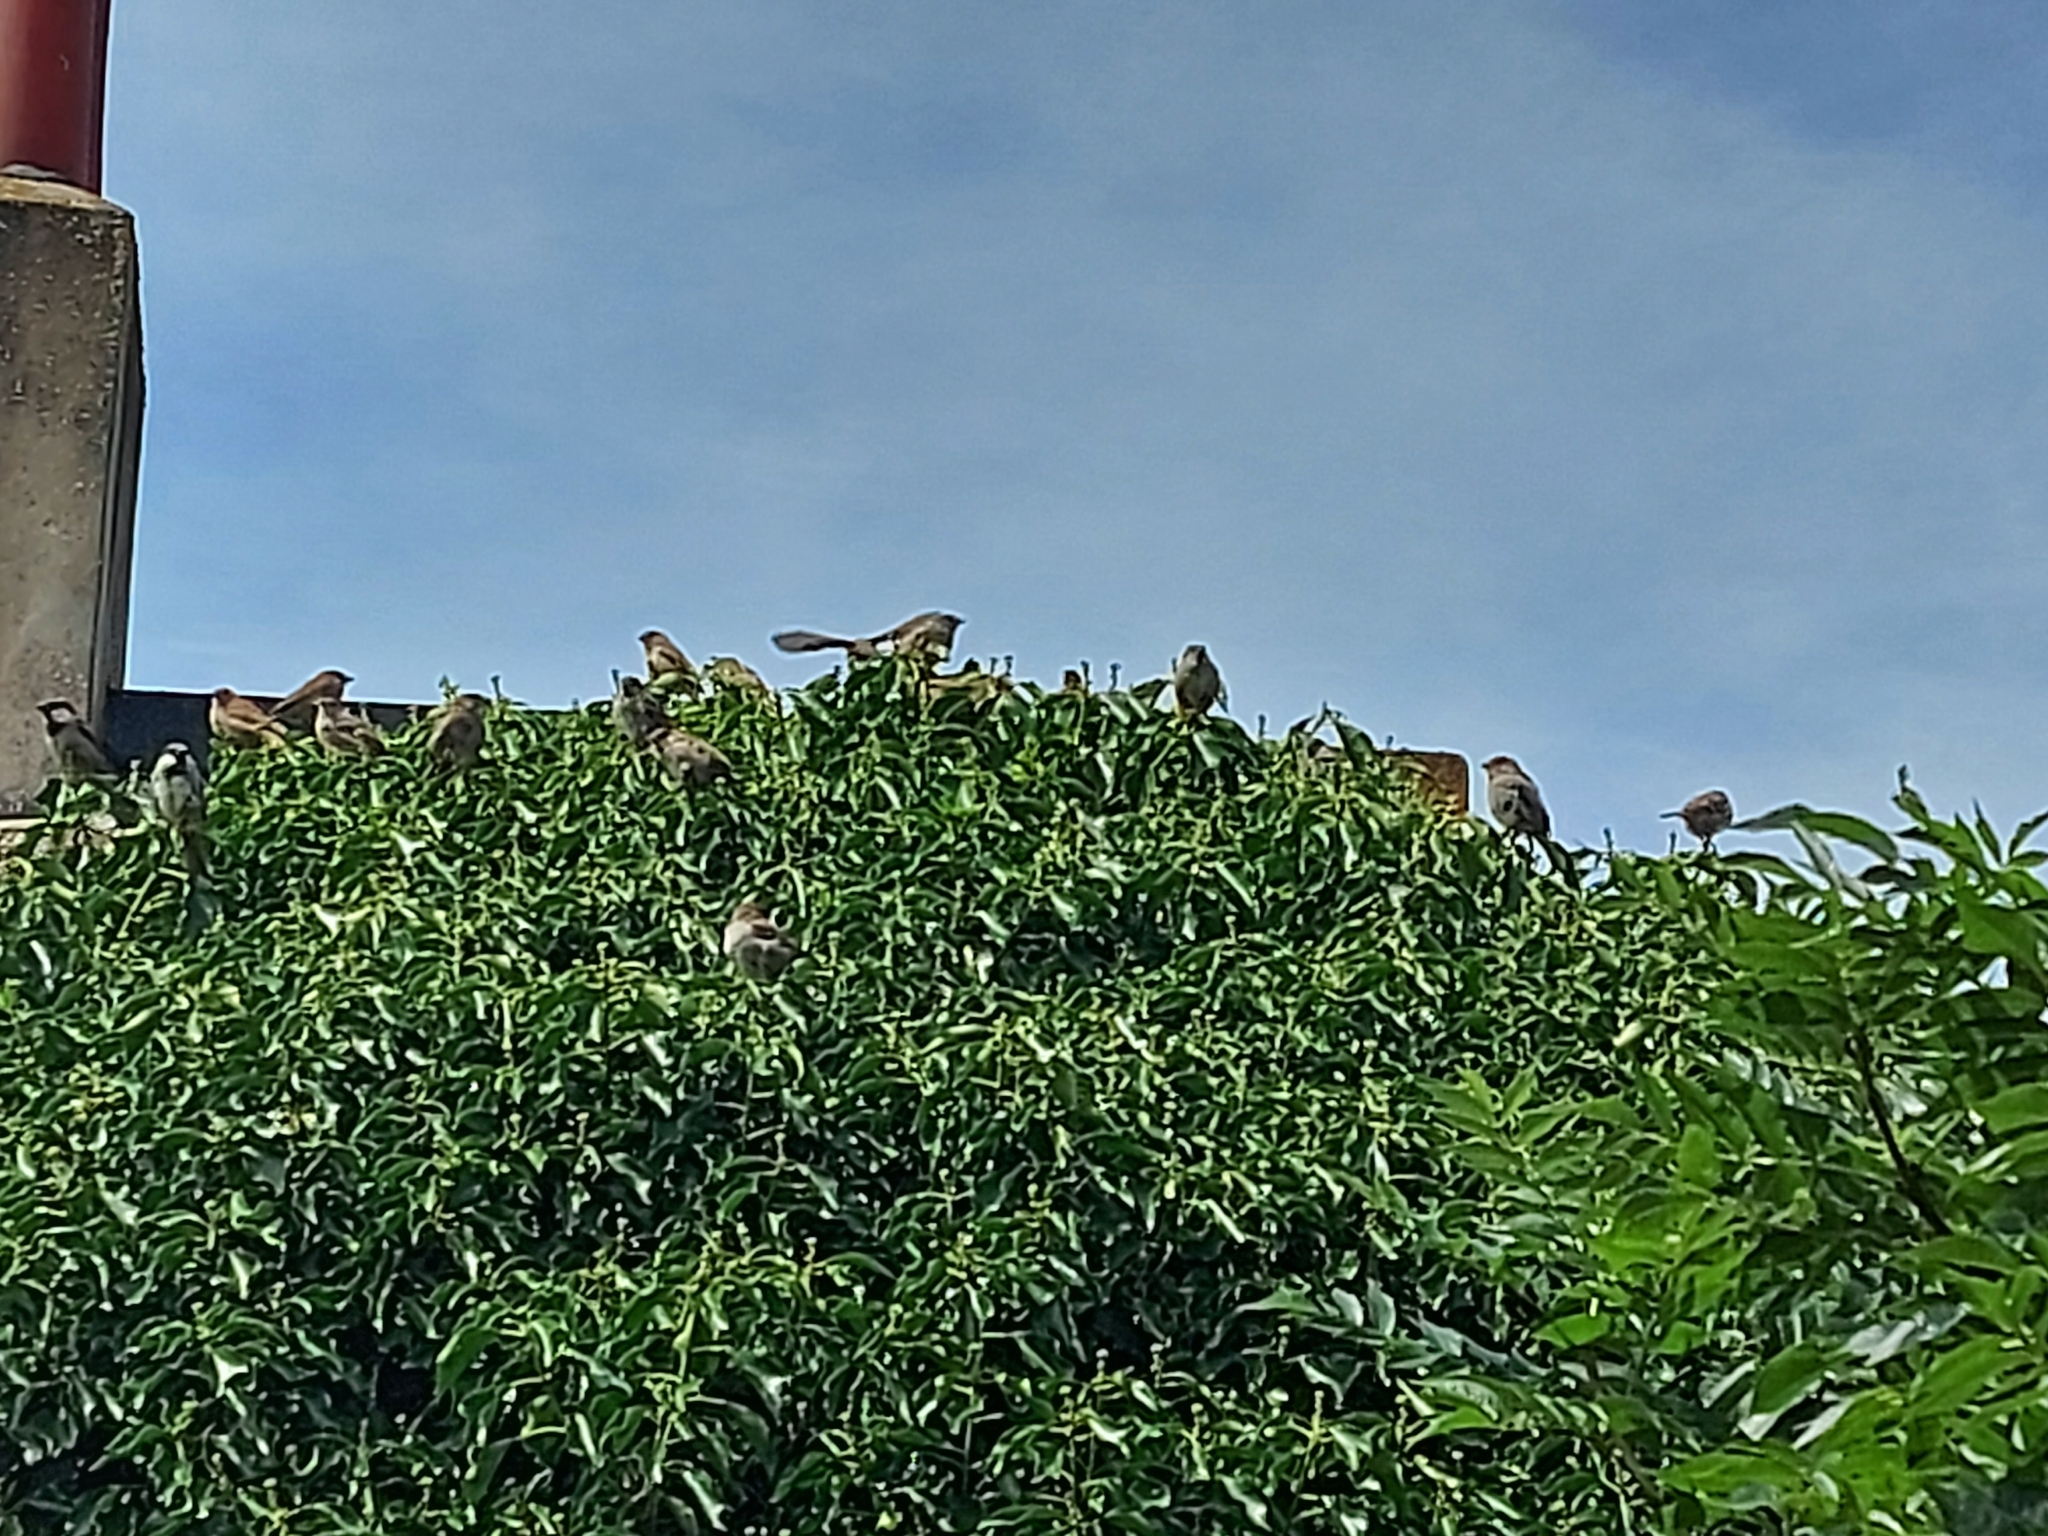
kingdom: Animalia
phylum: Chordata
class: Aves
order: Passeriformes
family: Passeridae
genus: Passer
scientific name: Passer domesticus
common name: House sparrow
